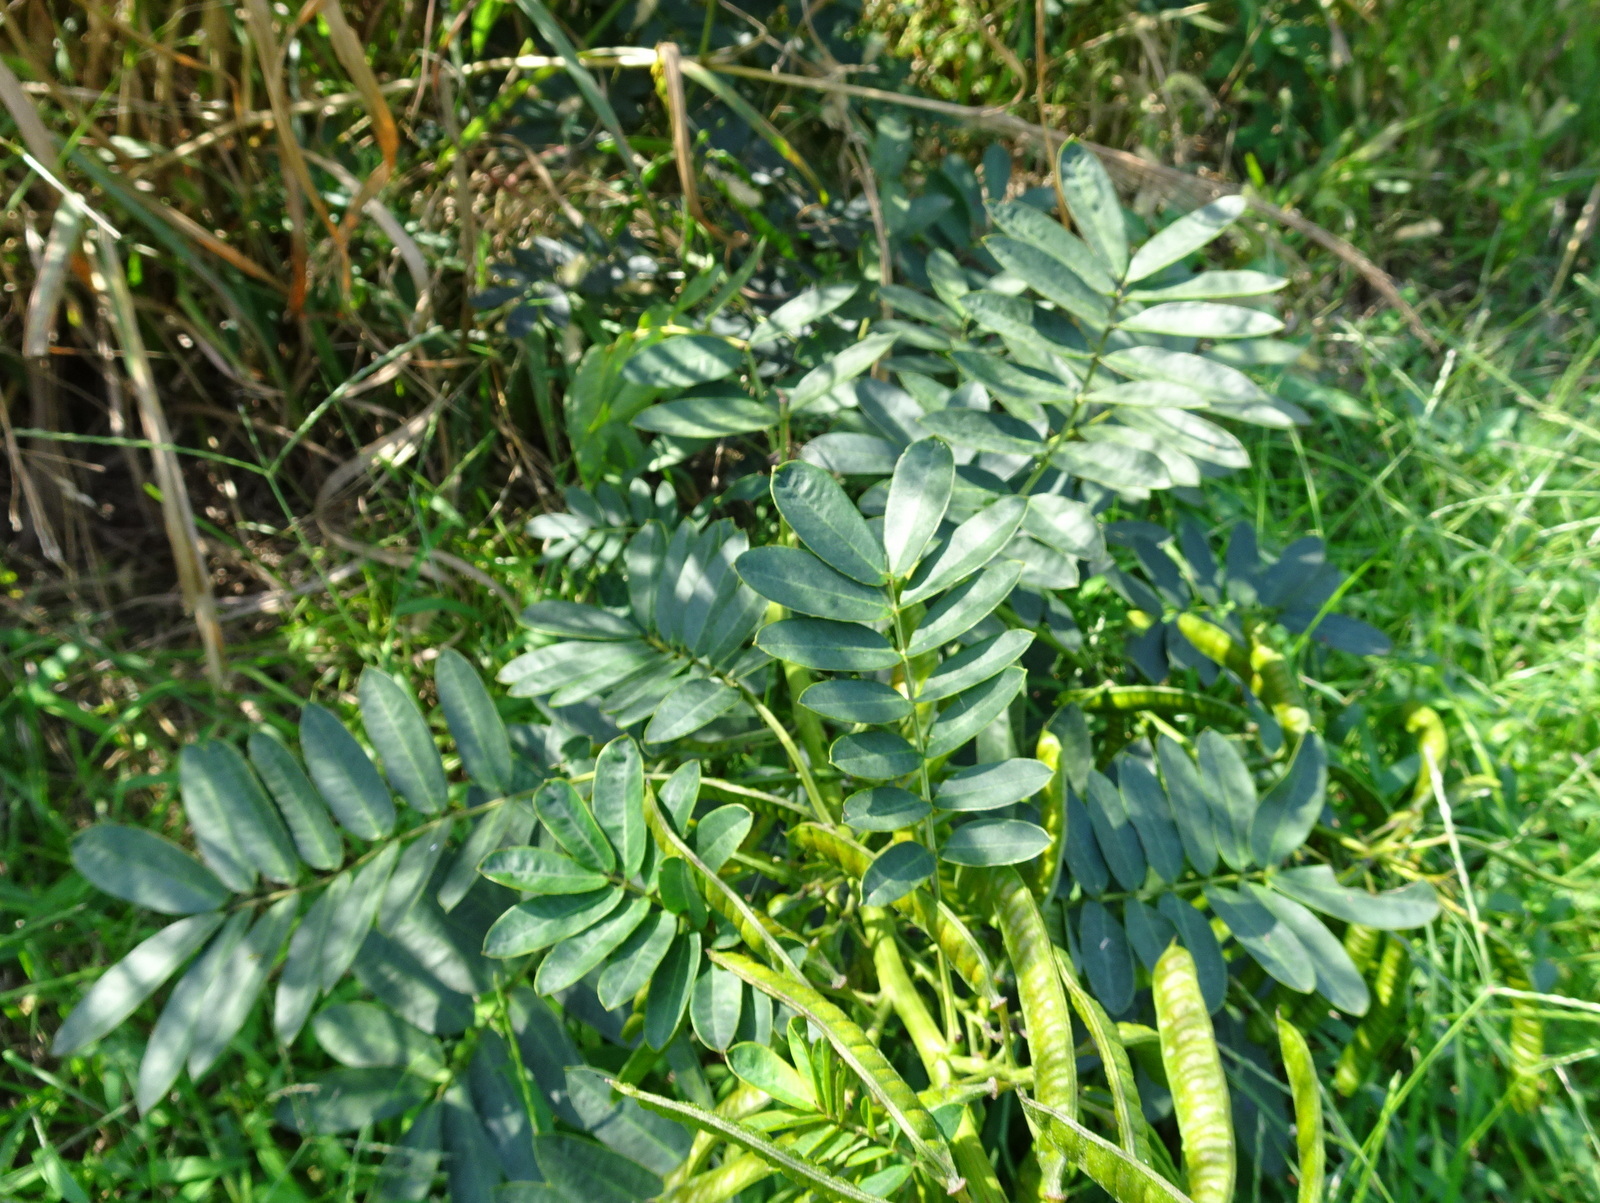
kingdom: Plantae
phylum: Tracheophyta
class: Magnoliopsida
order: Fabales
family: Fabaceae
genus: Senna
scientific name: Senna marilandica
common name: American senna
